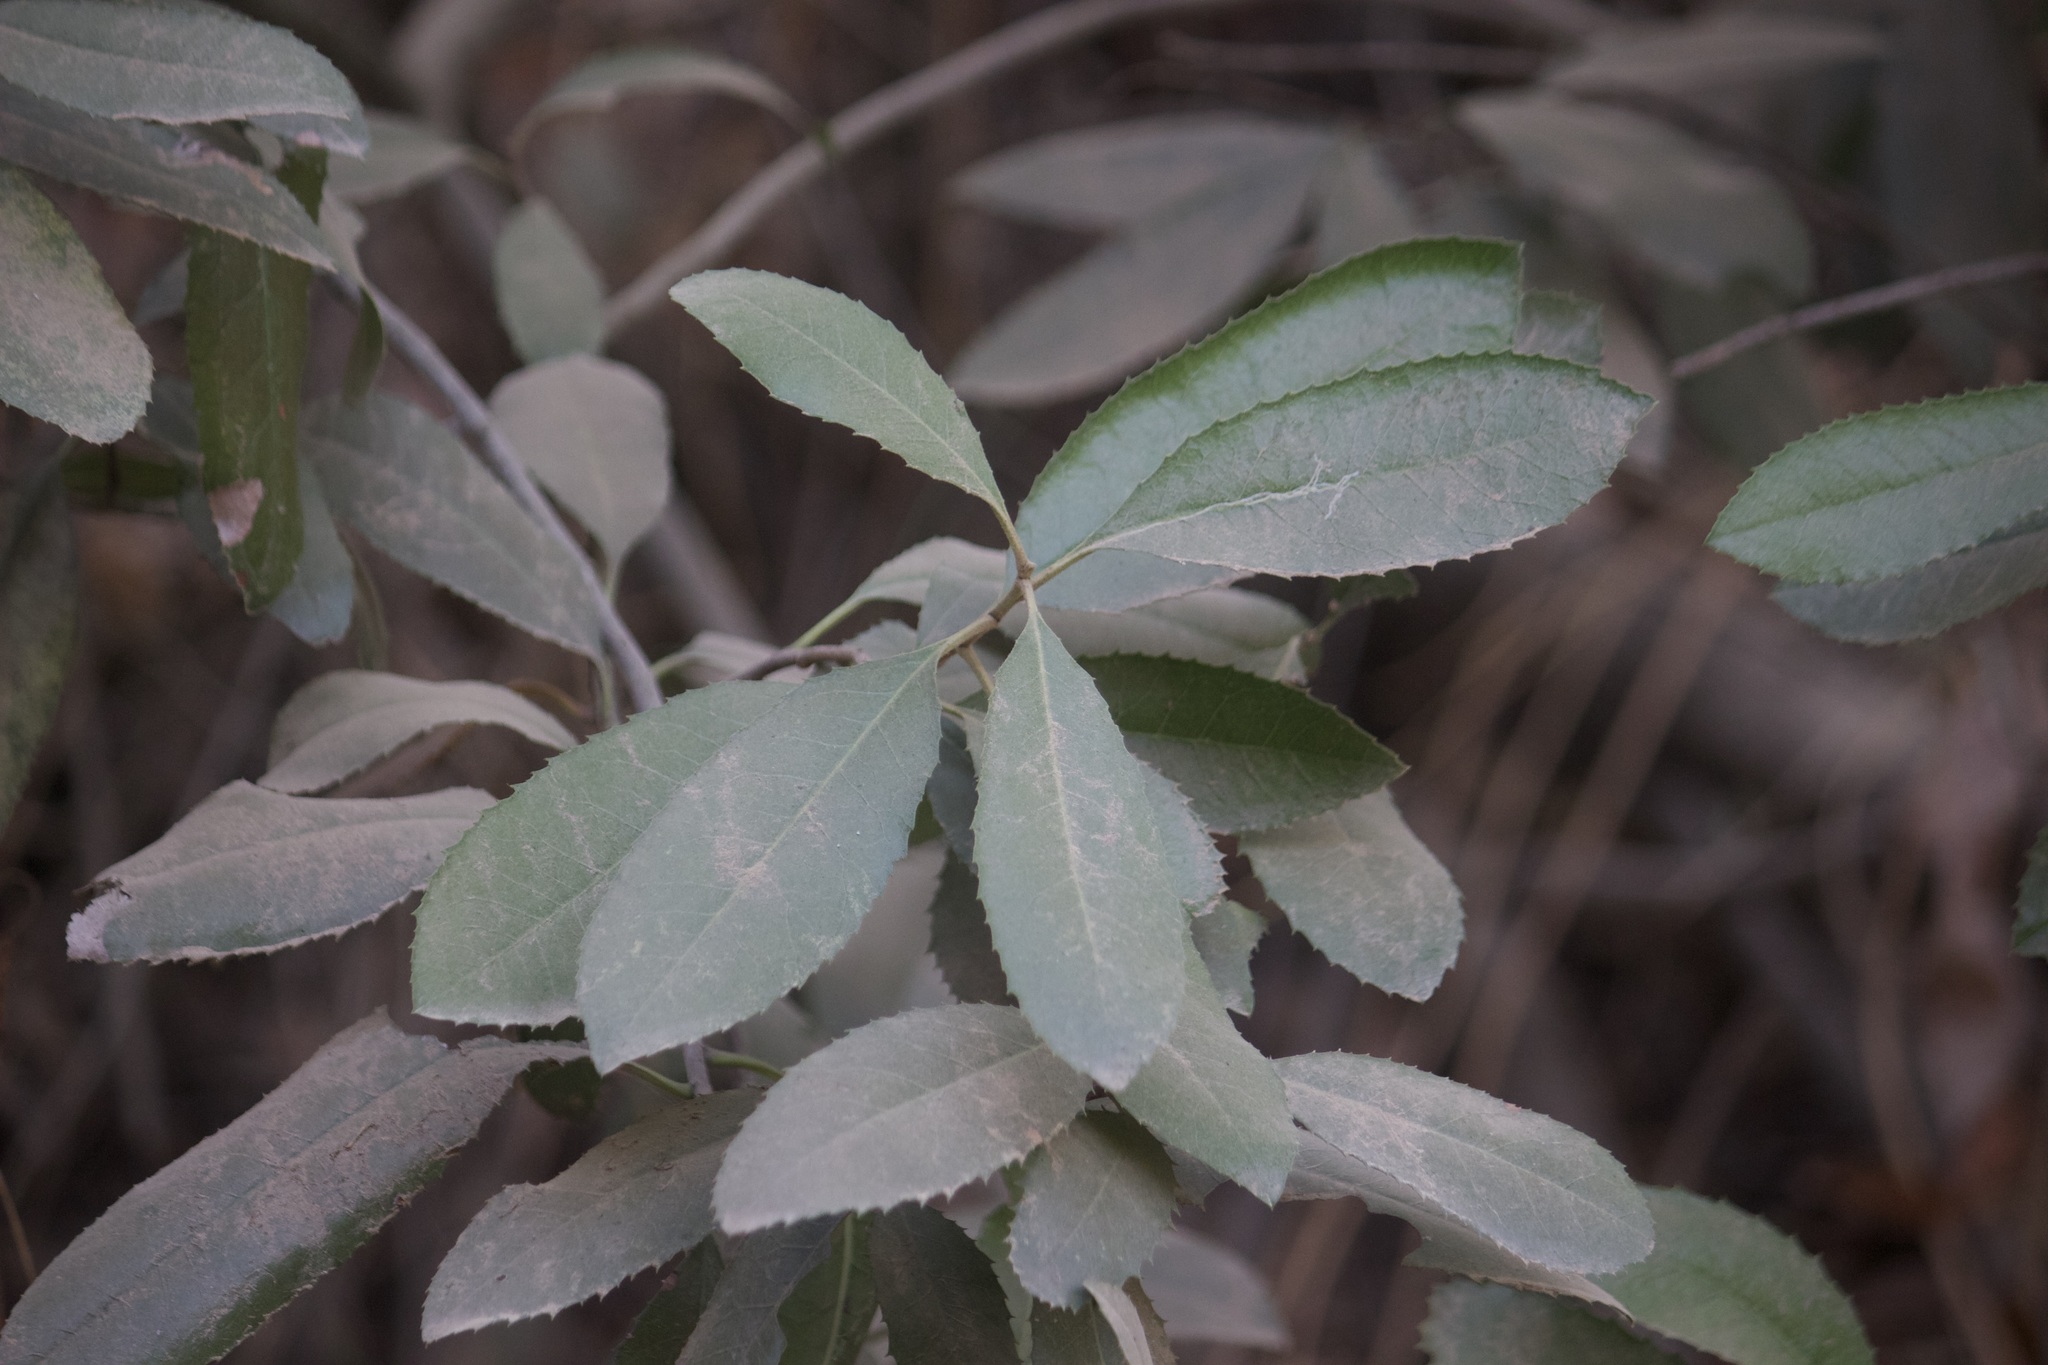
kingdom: Plantae
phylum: Tracheophyta
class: Magnoliopsida
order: Rosales
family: Rosaceae
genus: Heteromeles
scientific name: Heteromeles arbutifolia
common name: California-holly
